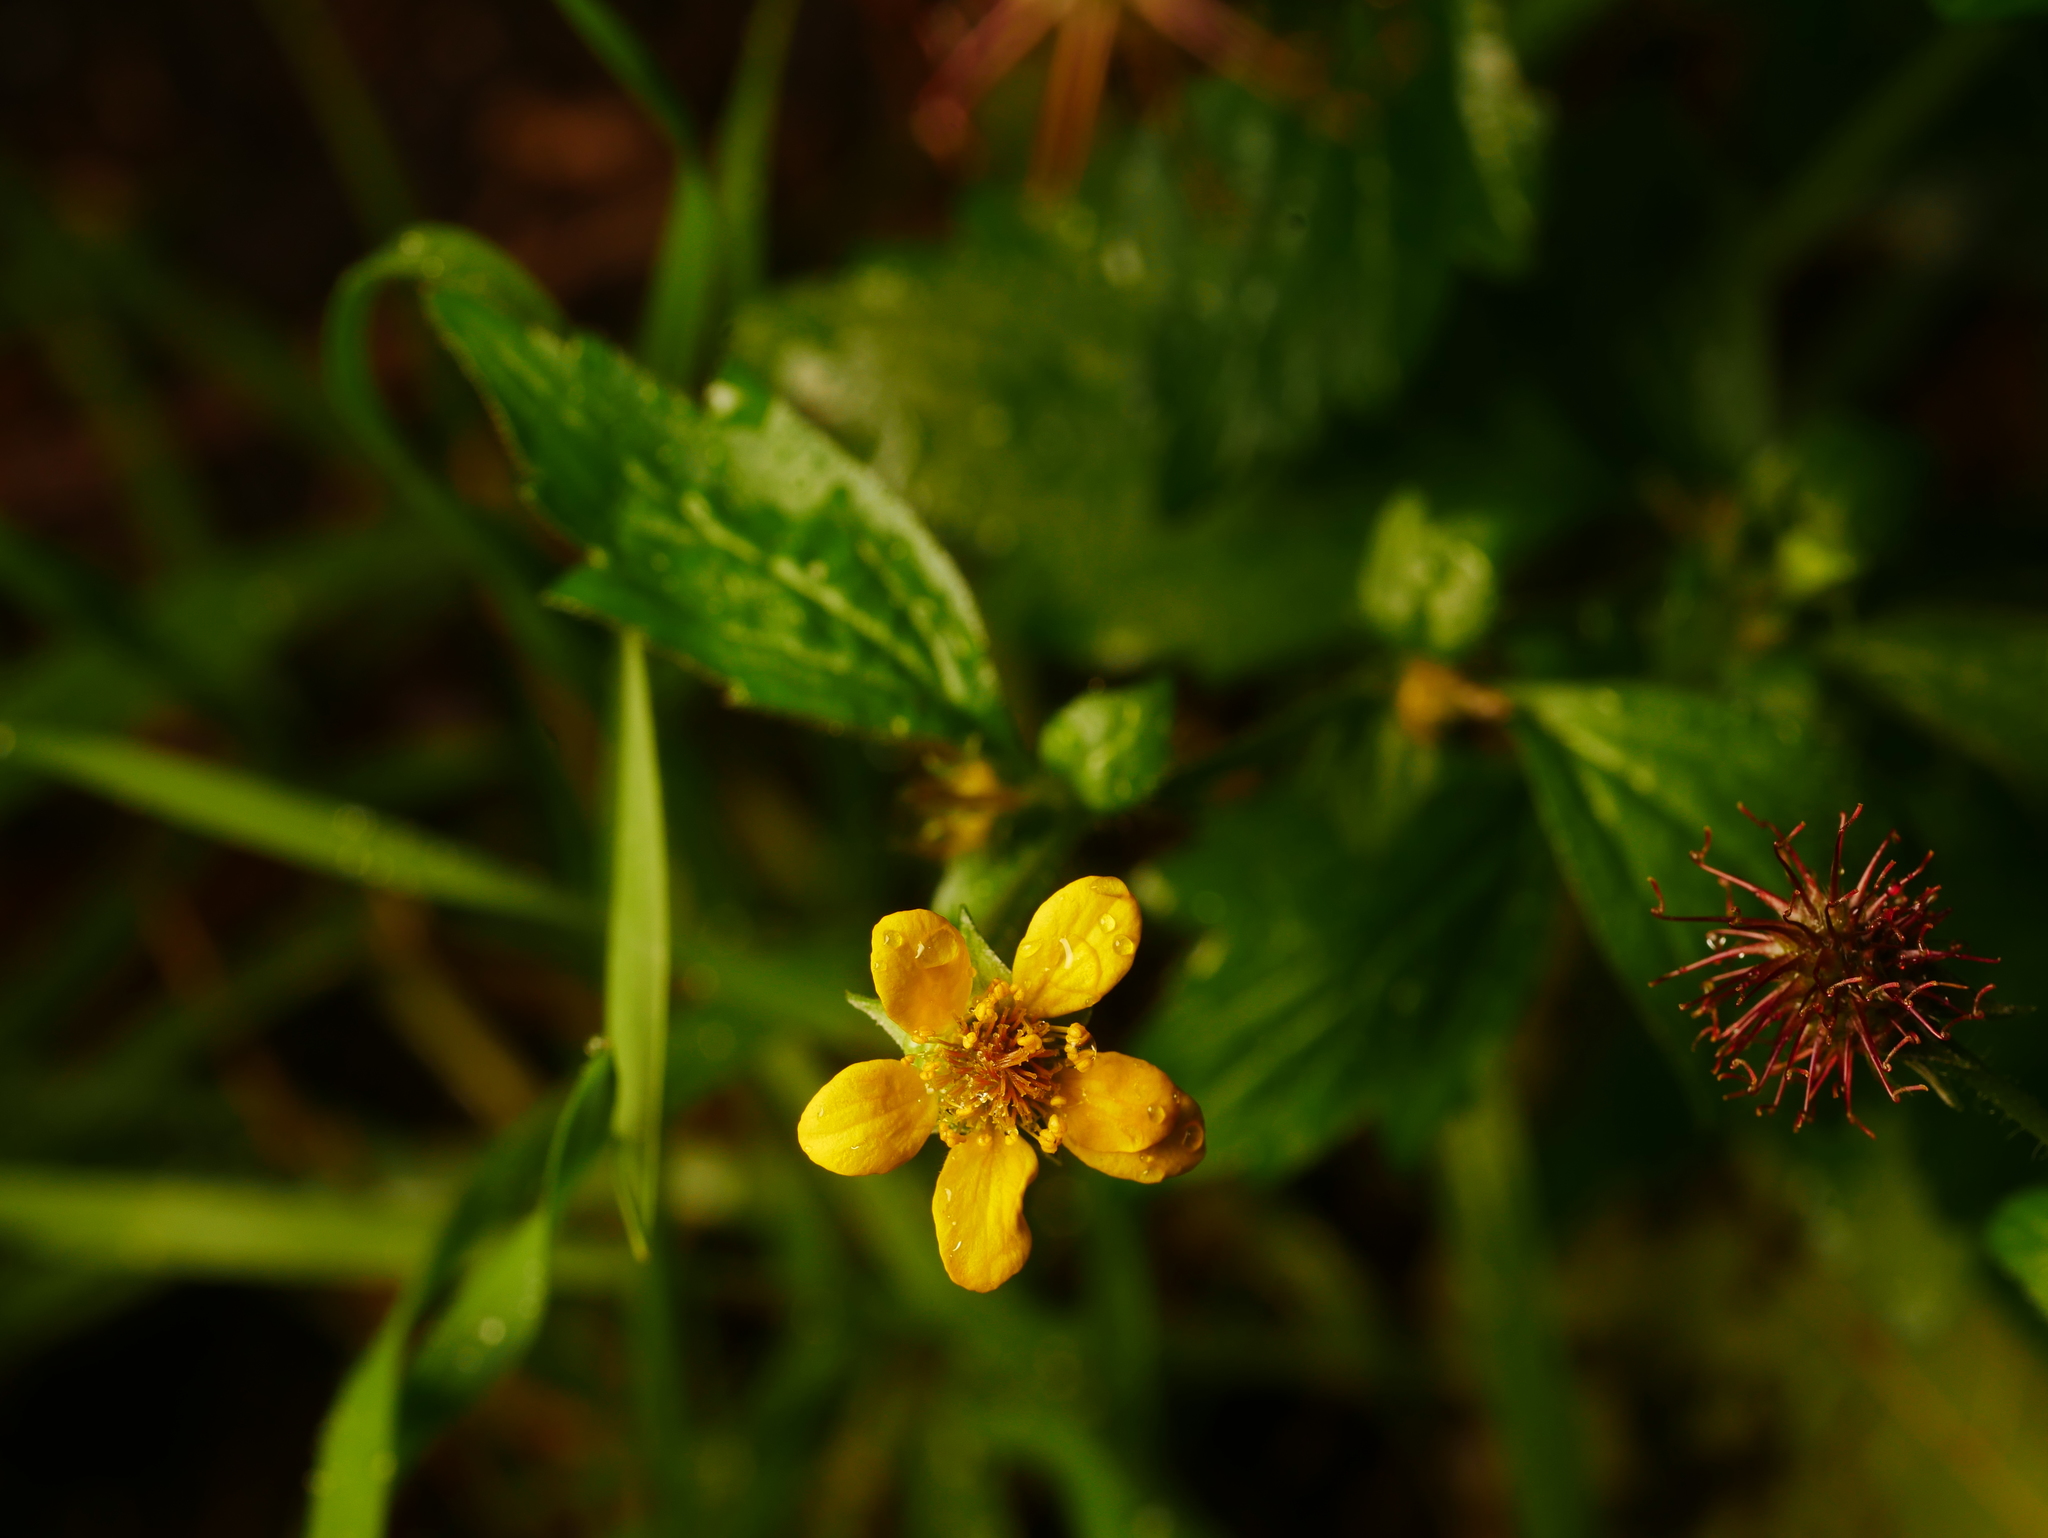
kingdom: Plantae
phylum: Tracheophyta
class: Magnoliopsida
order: Rosales
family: Rosaceae
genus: Geum
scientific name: Geum urbanum
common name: Wood avens
